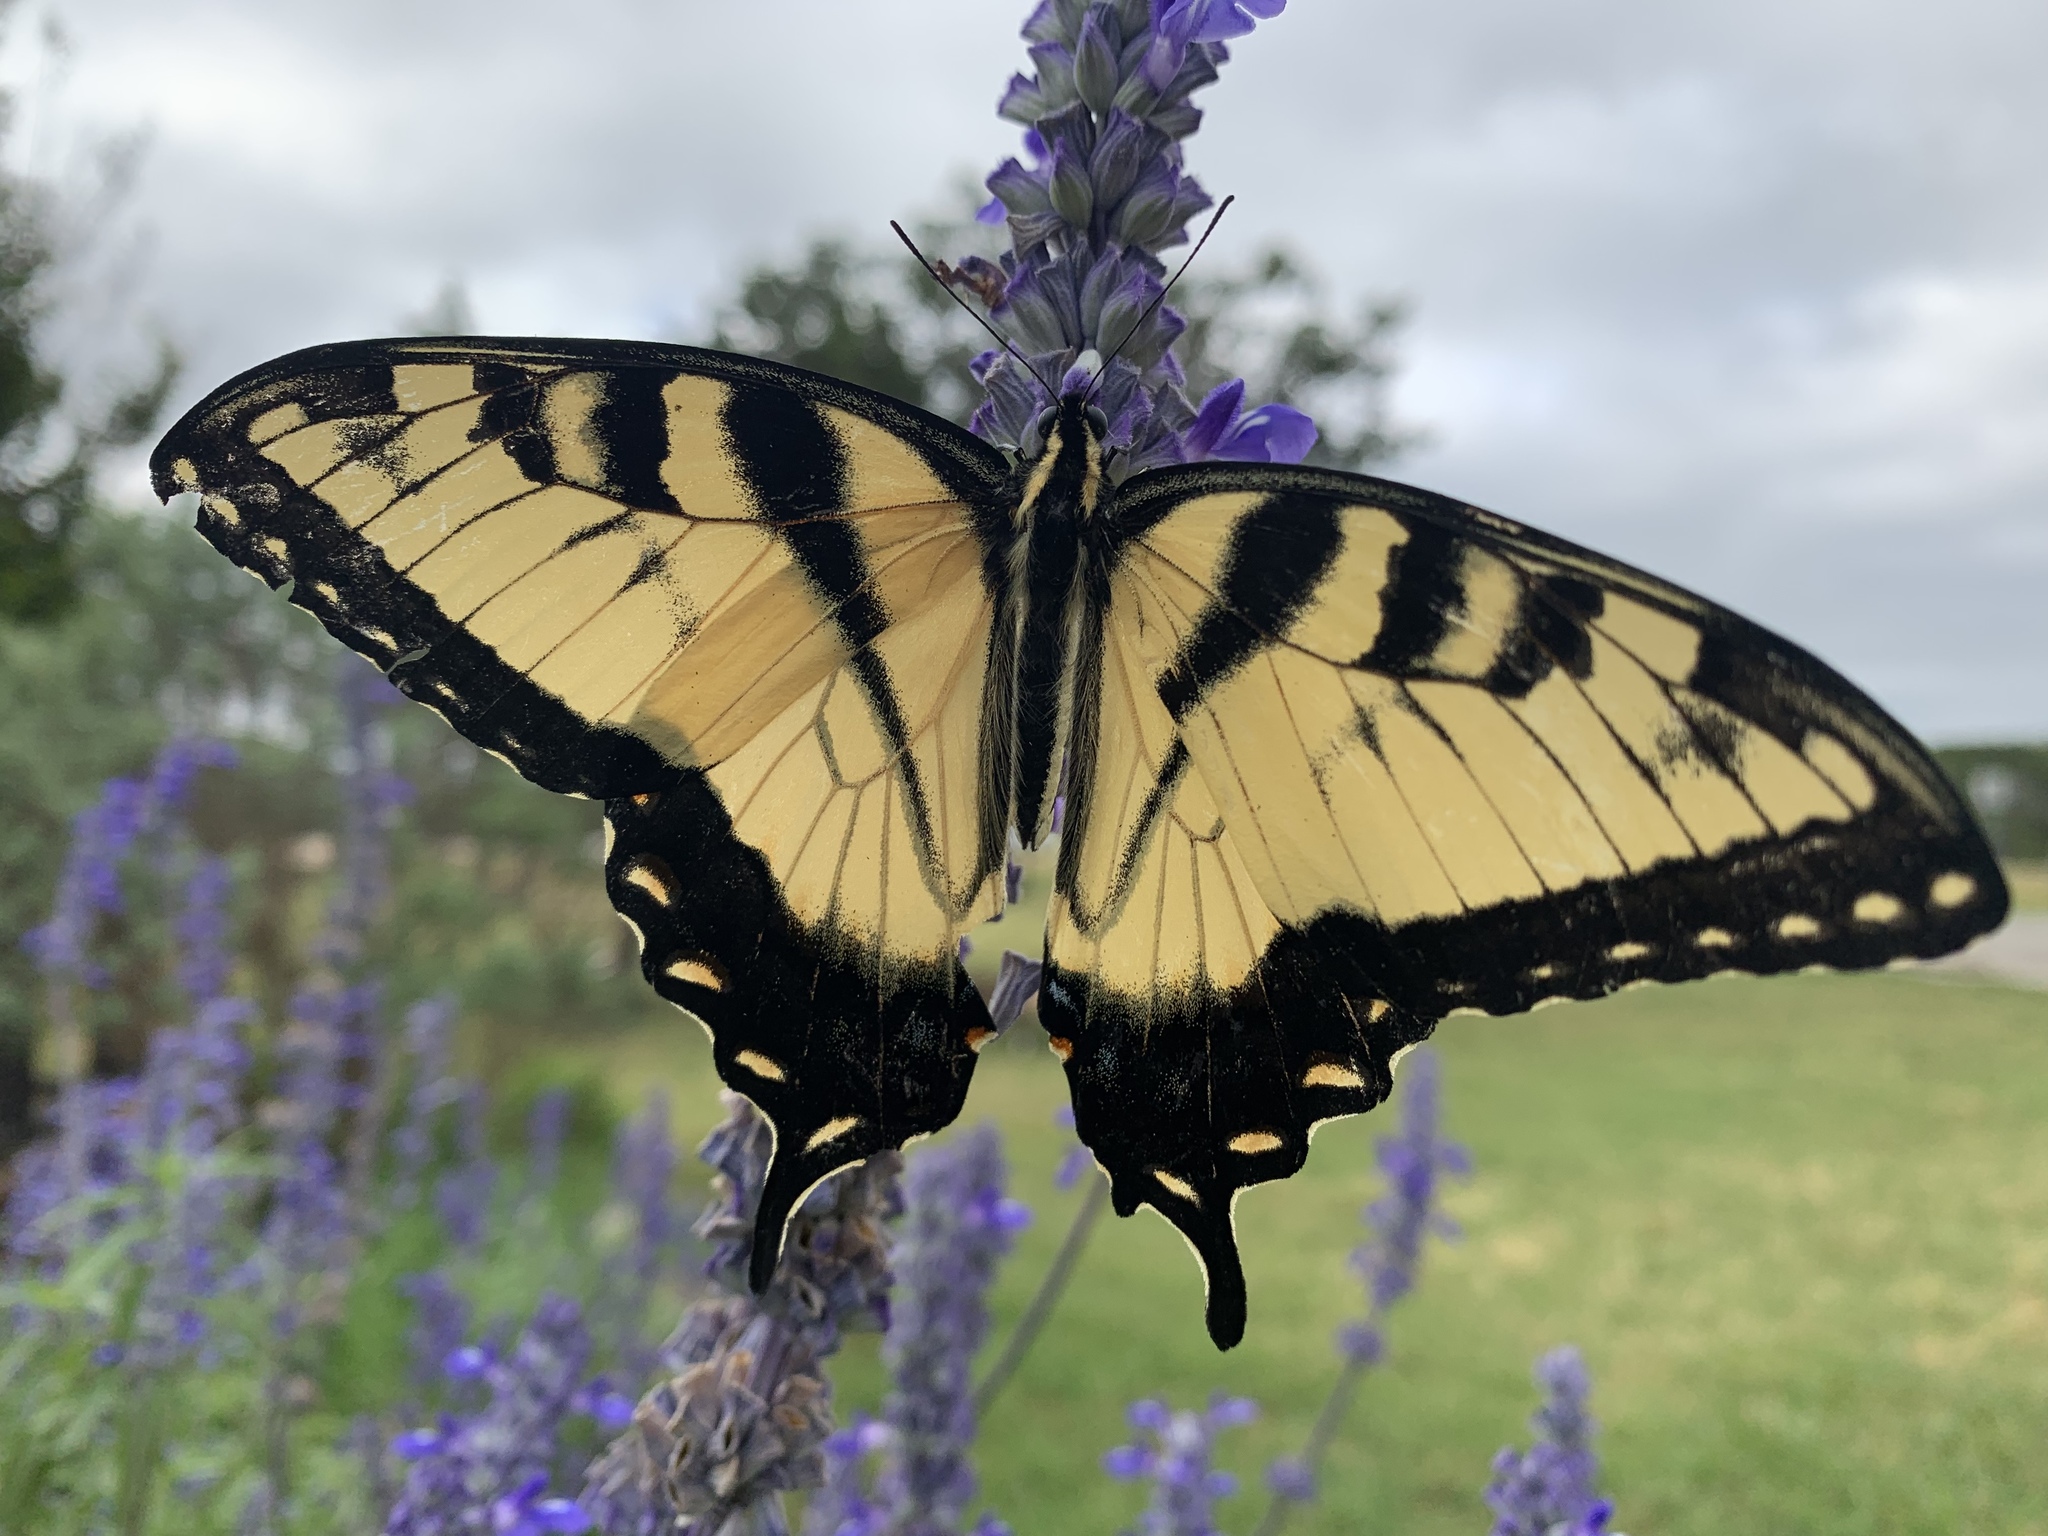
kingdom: Animalia
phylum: Arthropoda
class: Insecta
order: Lepidoptera
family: Papilionidae
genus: Papilio
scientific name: Papilio glaucus
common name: Tiger swallowtail
